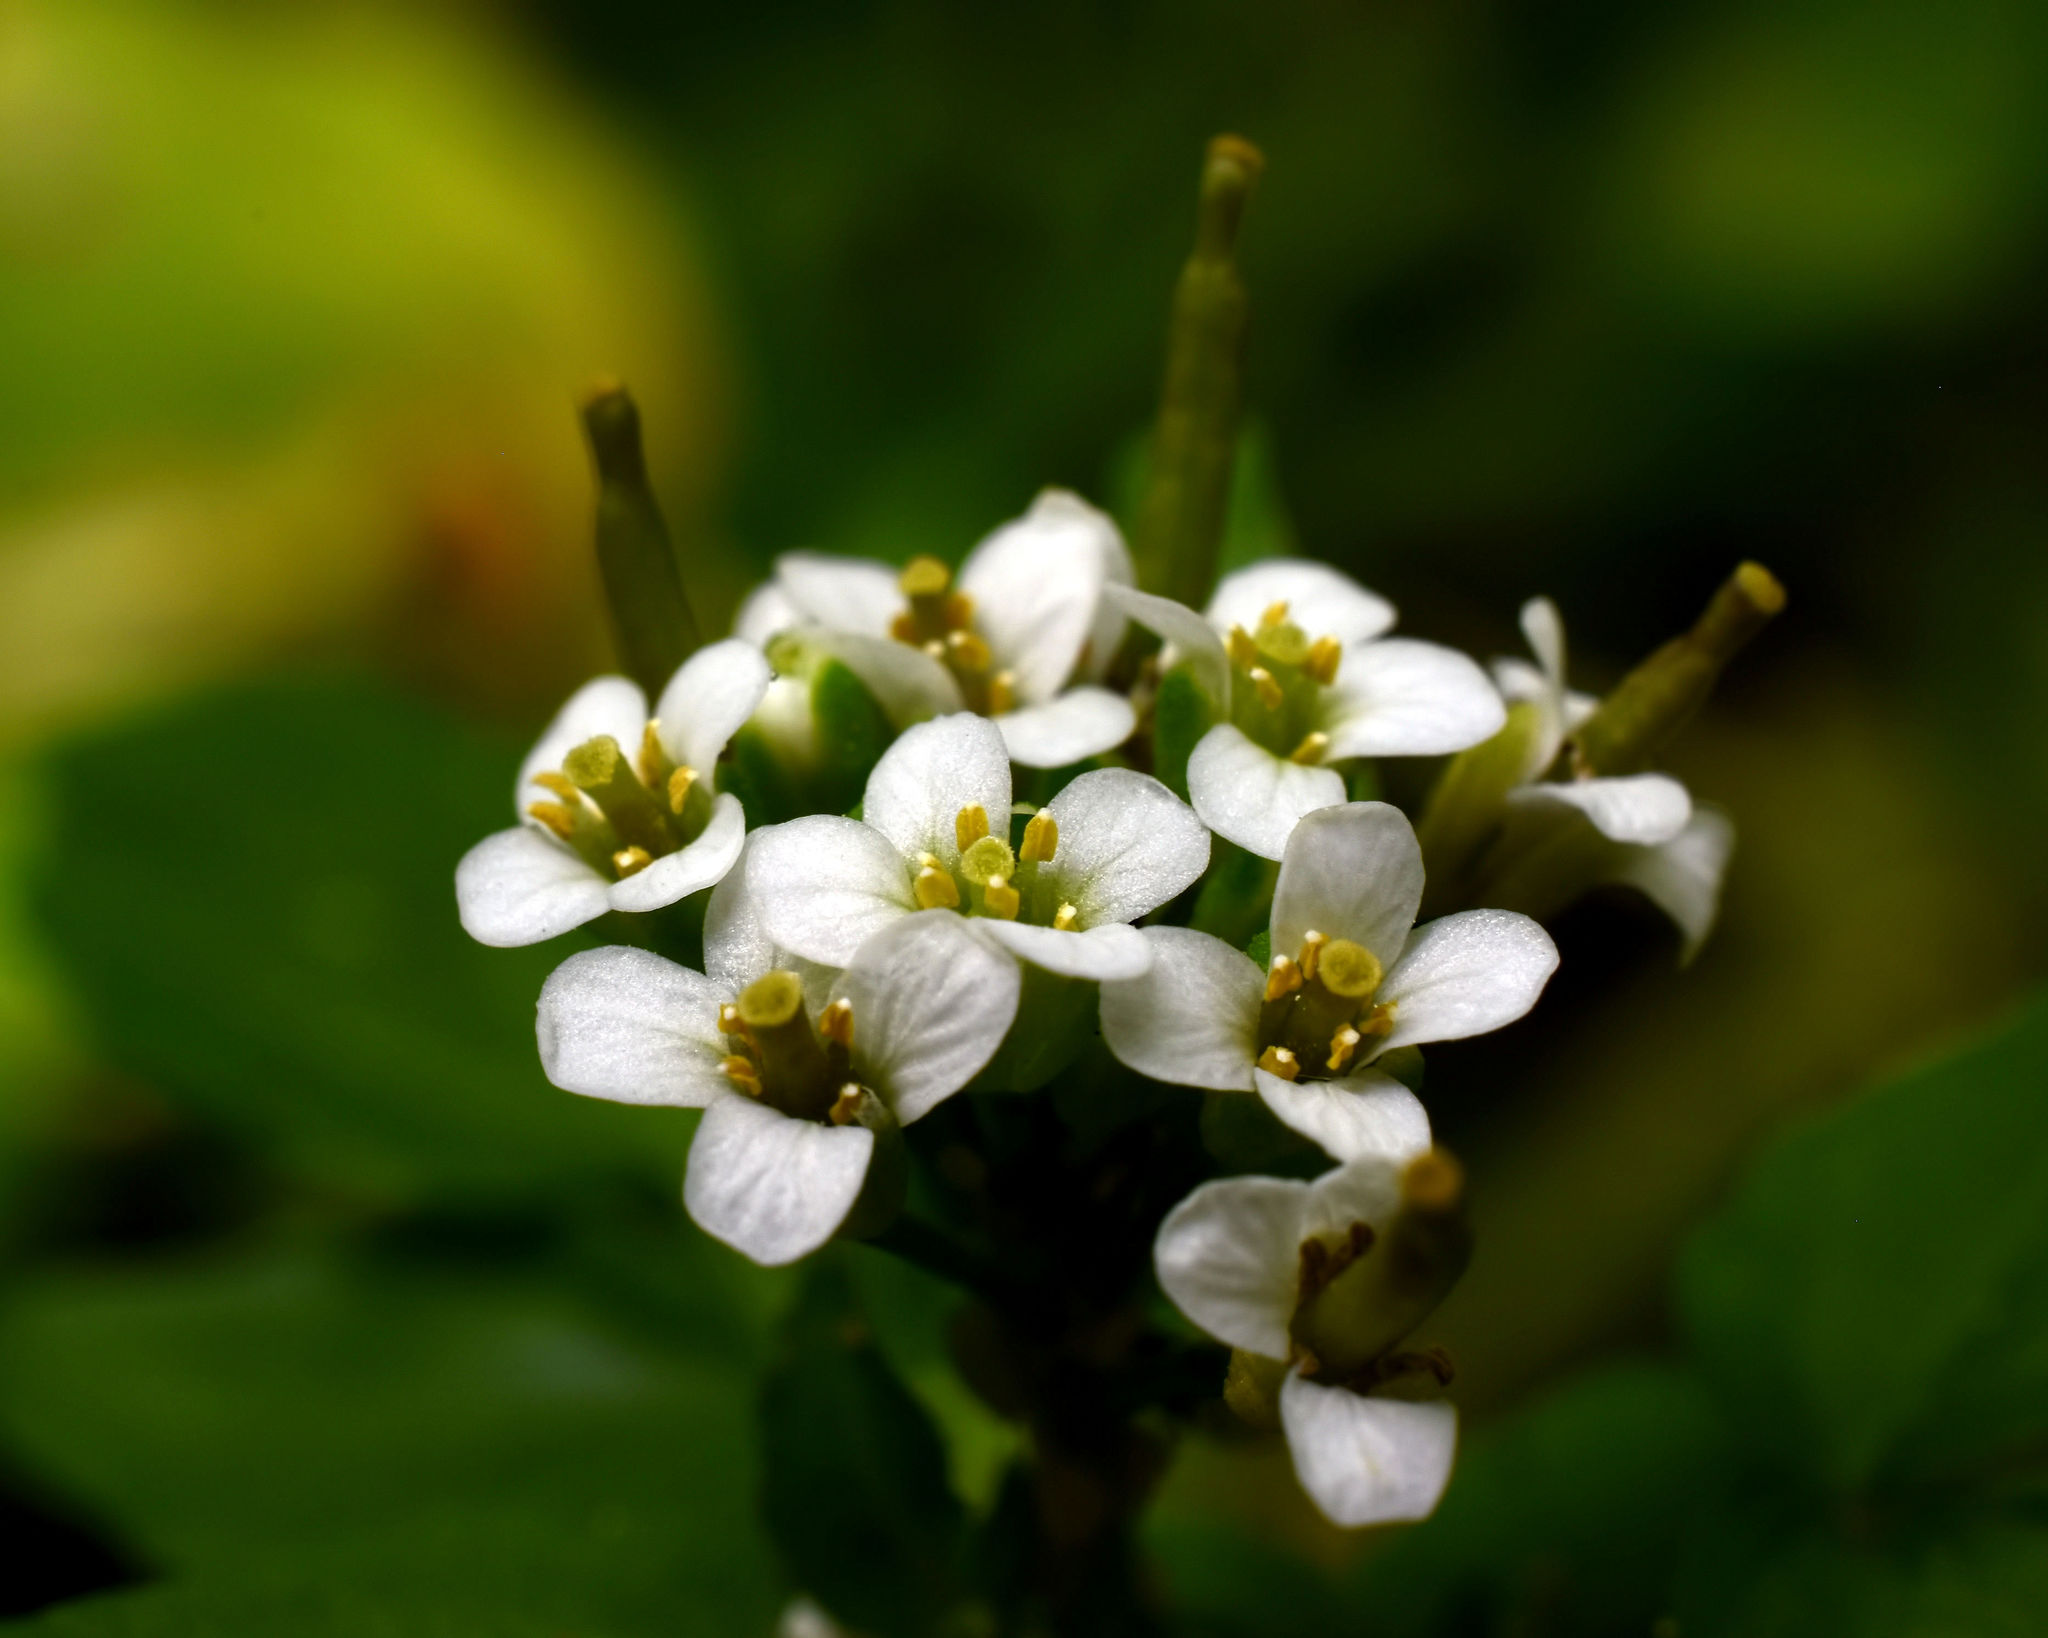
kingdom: Plantae
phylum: Tracheophyta
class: Magnoliopsida
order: Brassicales
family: Brassicaceae
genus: Nasturtium
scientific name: Nasturtium officinale
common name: Watercress
